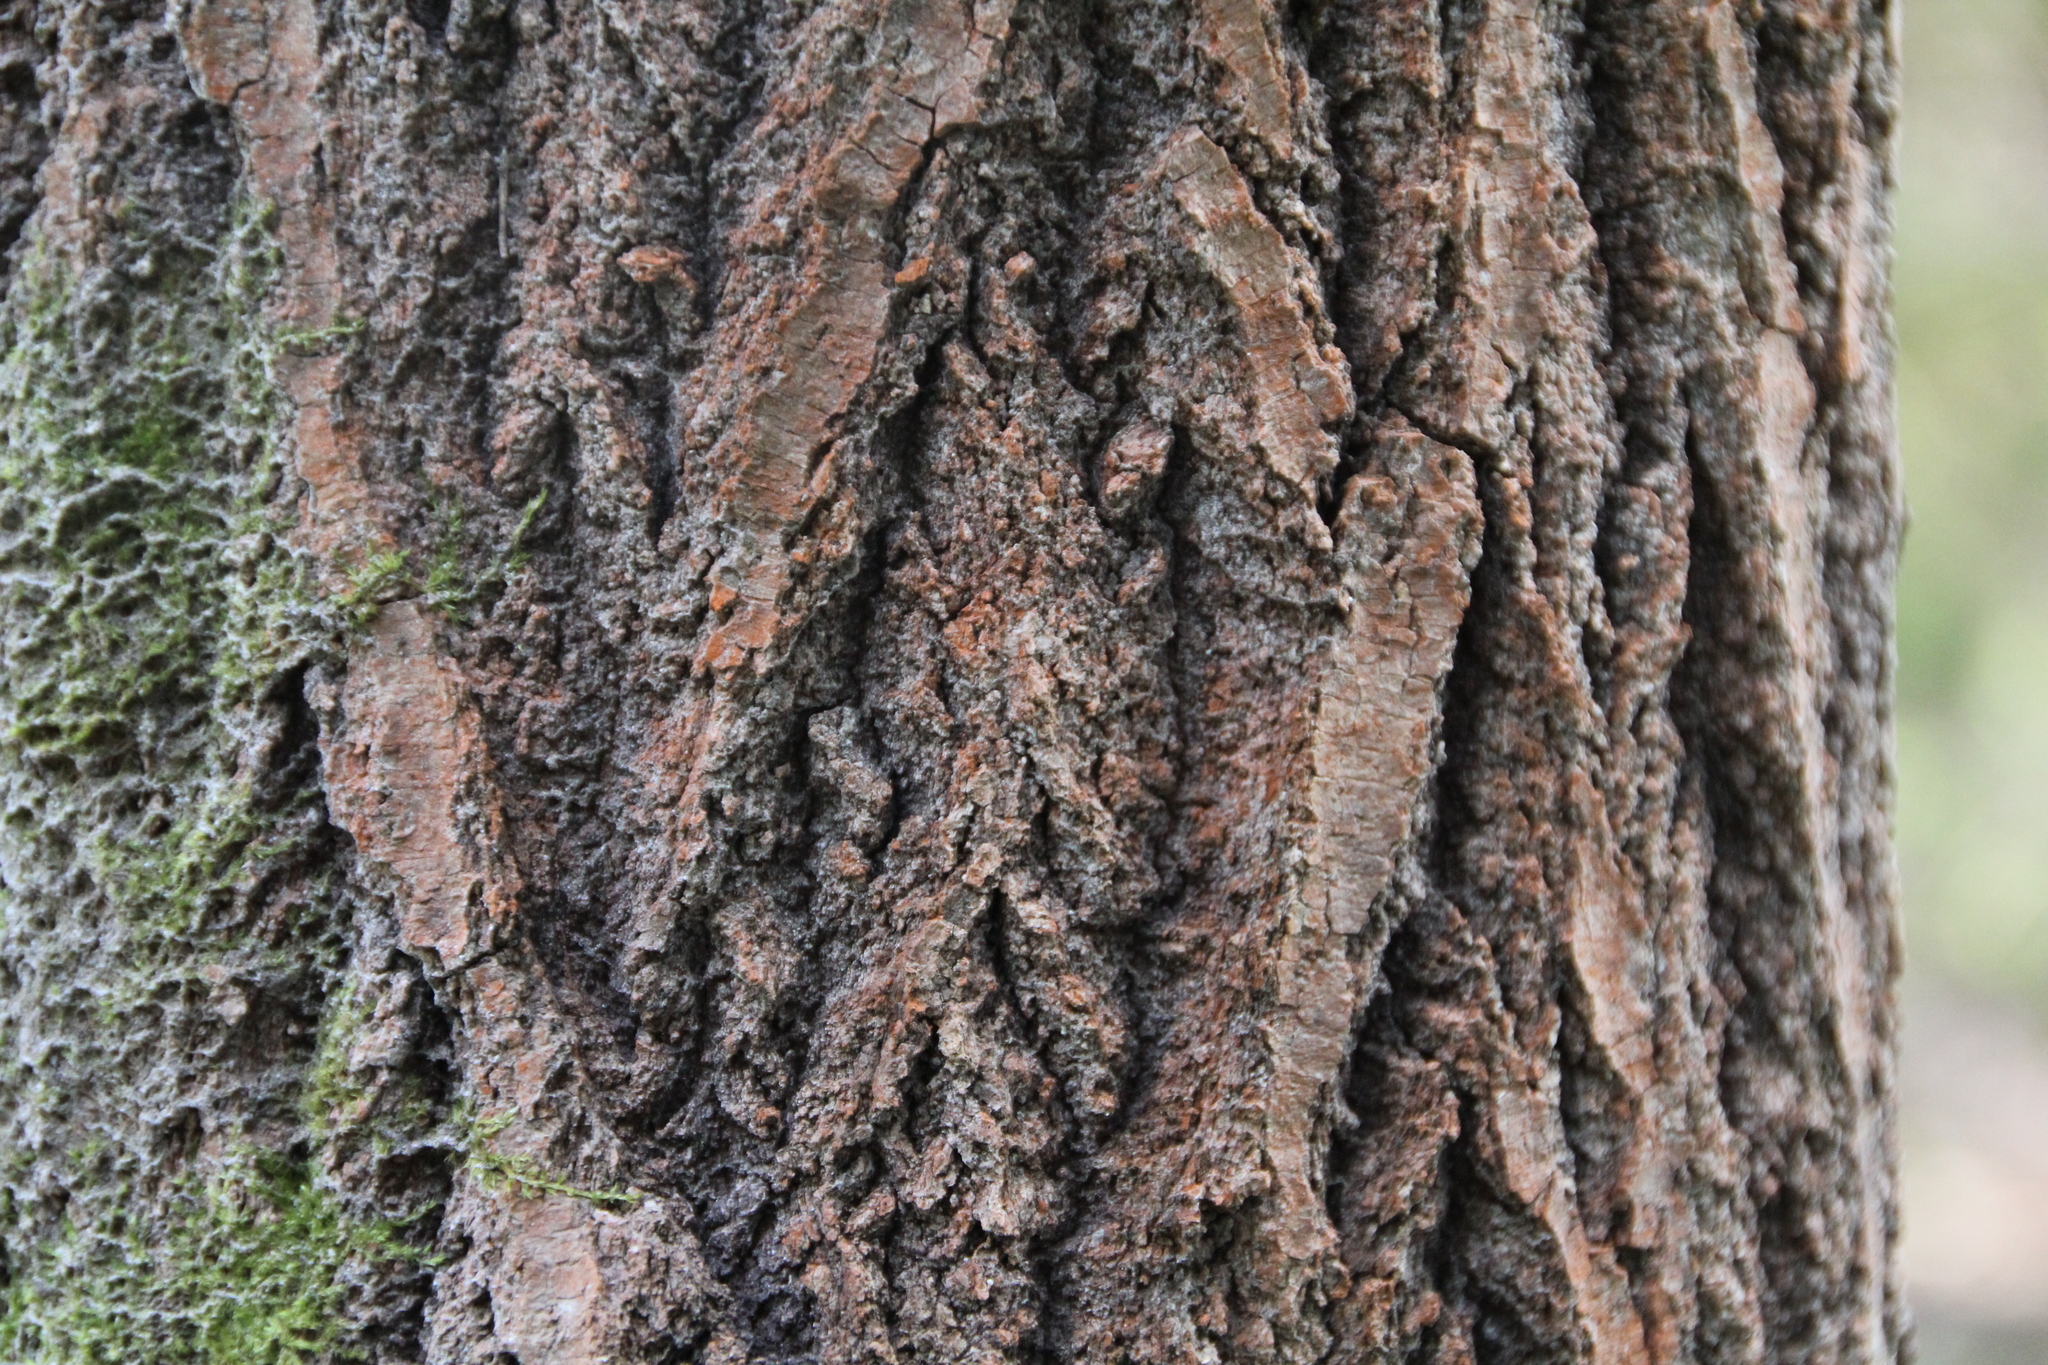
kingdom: Plantae
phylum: Chlorophyta
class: Ulvophyceae
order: Trentepohliales
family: Trentepohliaceae
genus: Trentepohlia
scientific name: Trentepohlia umbrina
